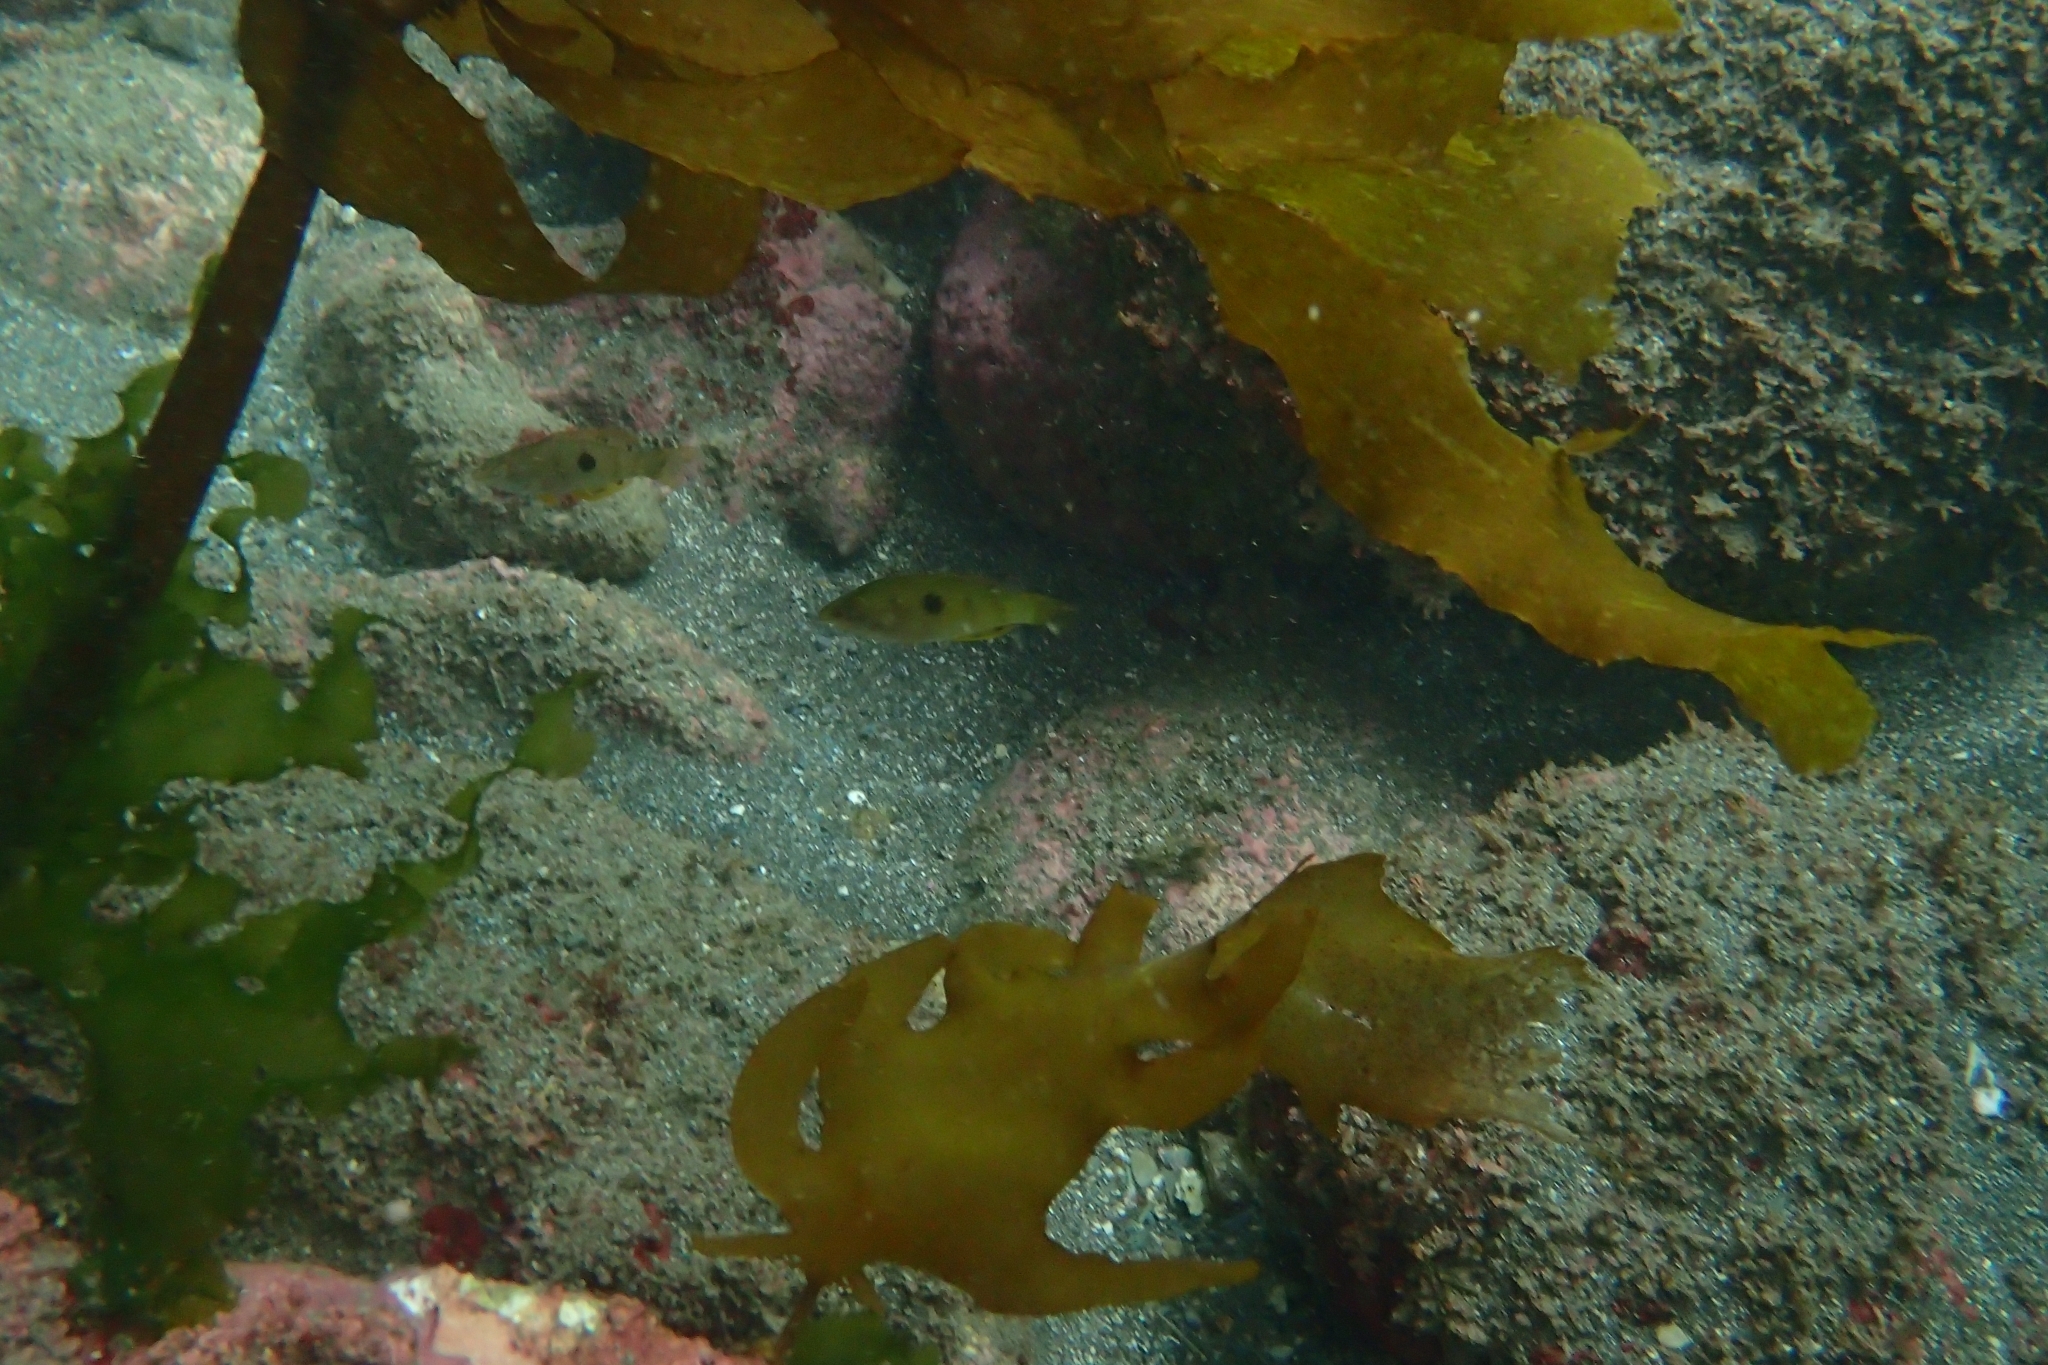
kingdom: Animalia
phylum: Chordata
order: Perciformes
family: Labridae
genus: Notolabrus
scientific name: Notolabrus celidotus
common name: Spotty
